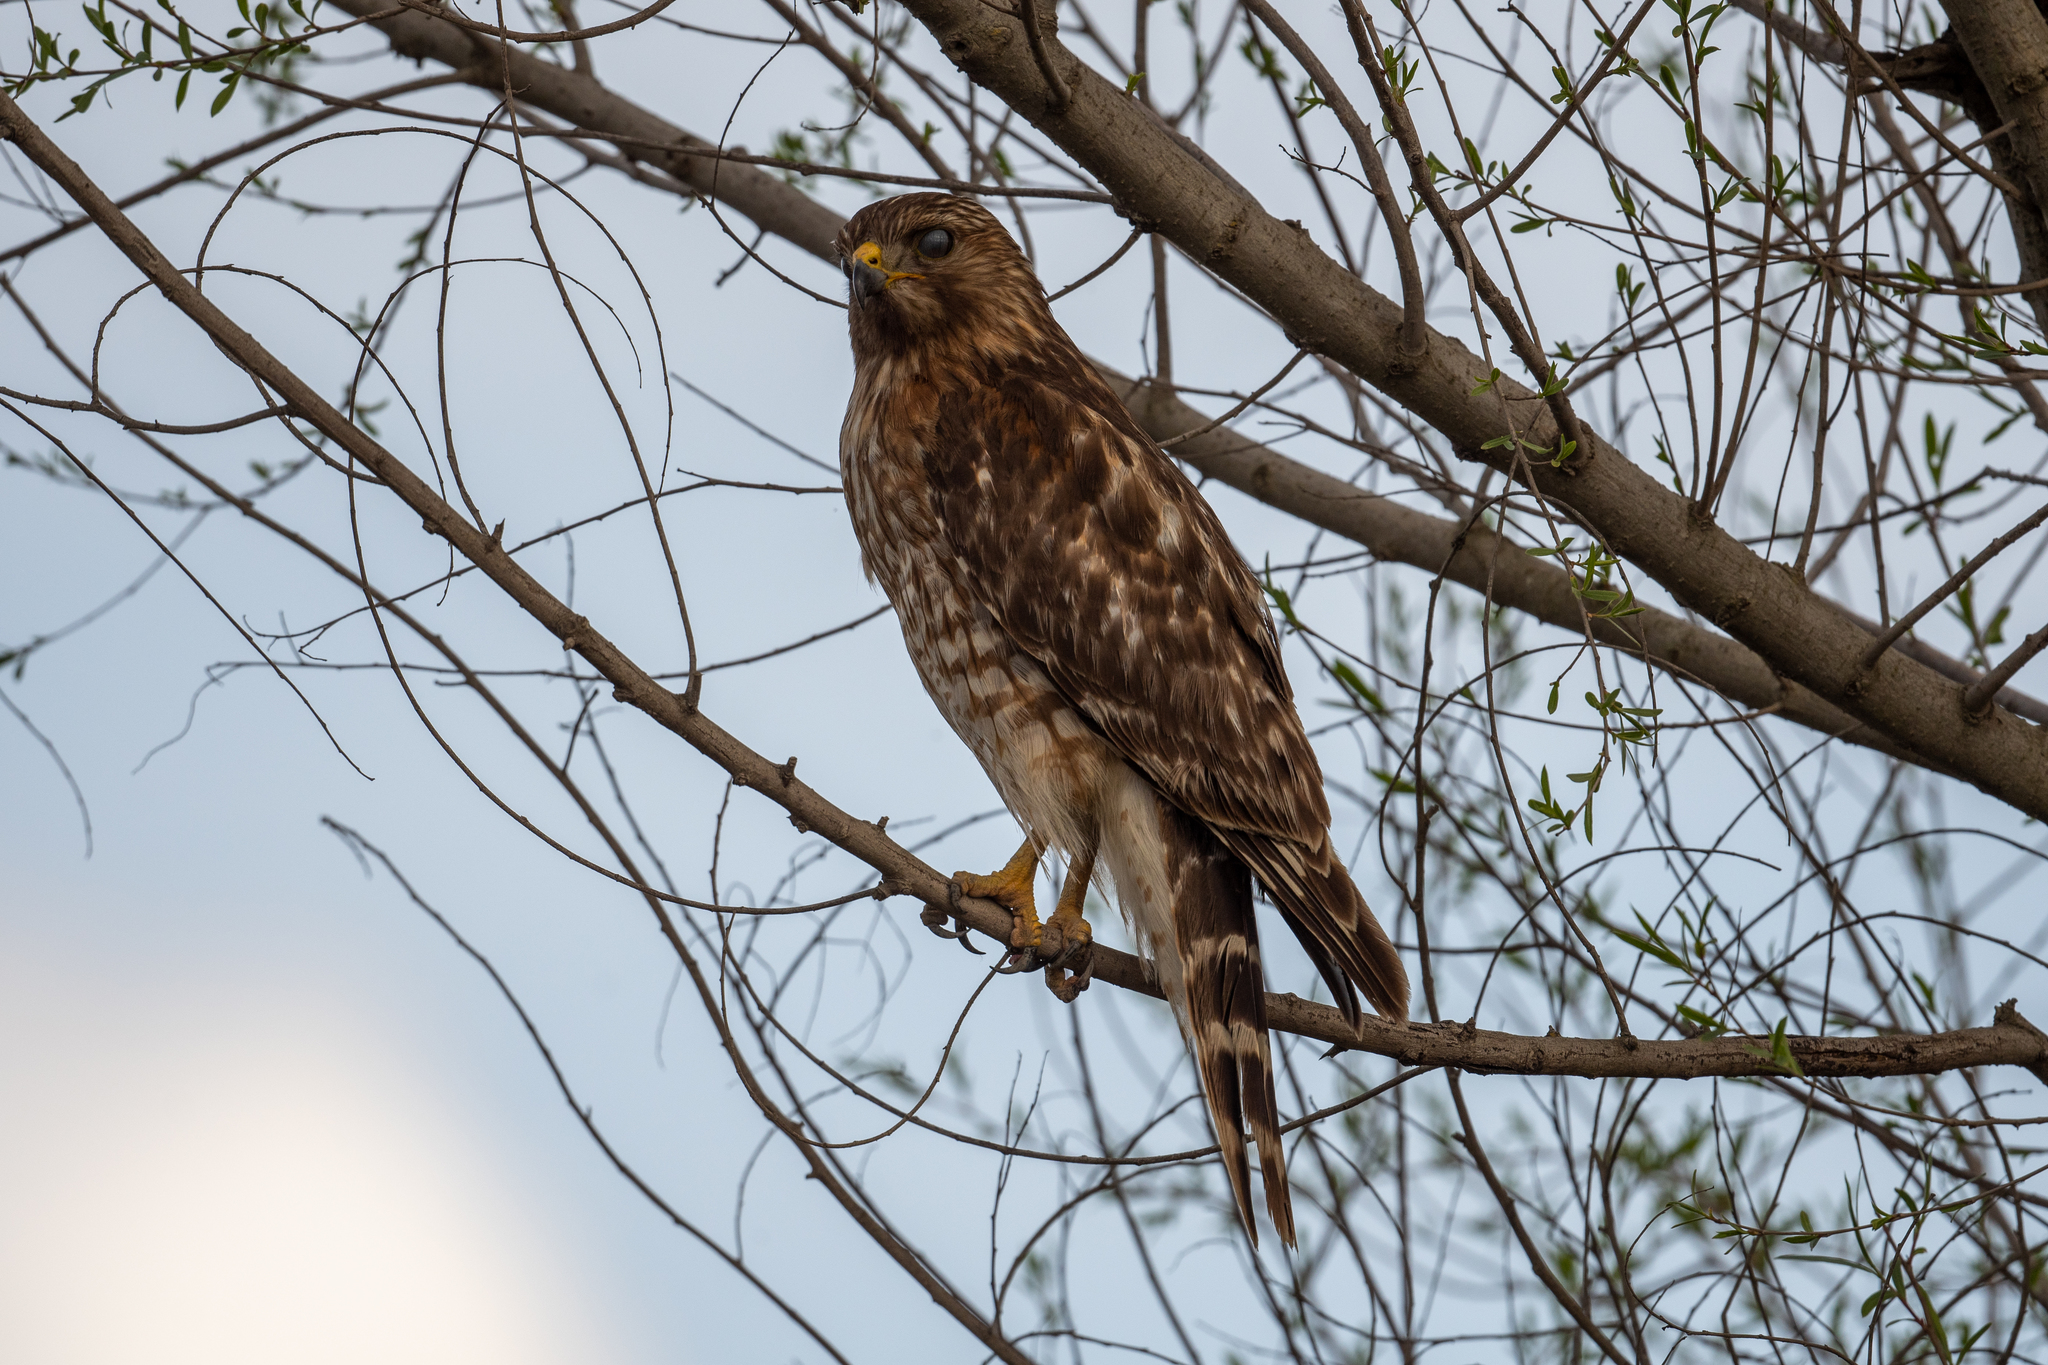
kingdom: Animalia
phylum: Chordata
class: Aves
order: Accipitriformes
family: Accipitridae
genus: Buteo
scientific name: Buteo lineatus
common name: Red-shouldered hawk
